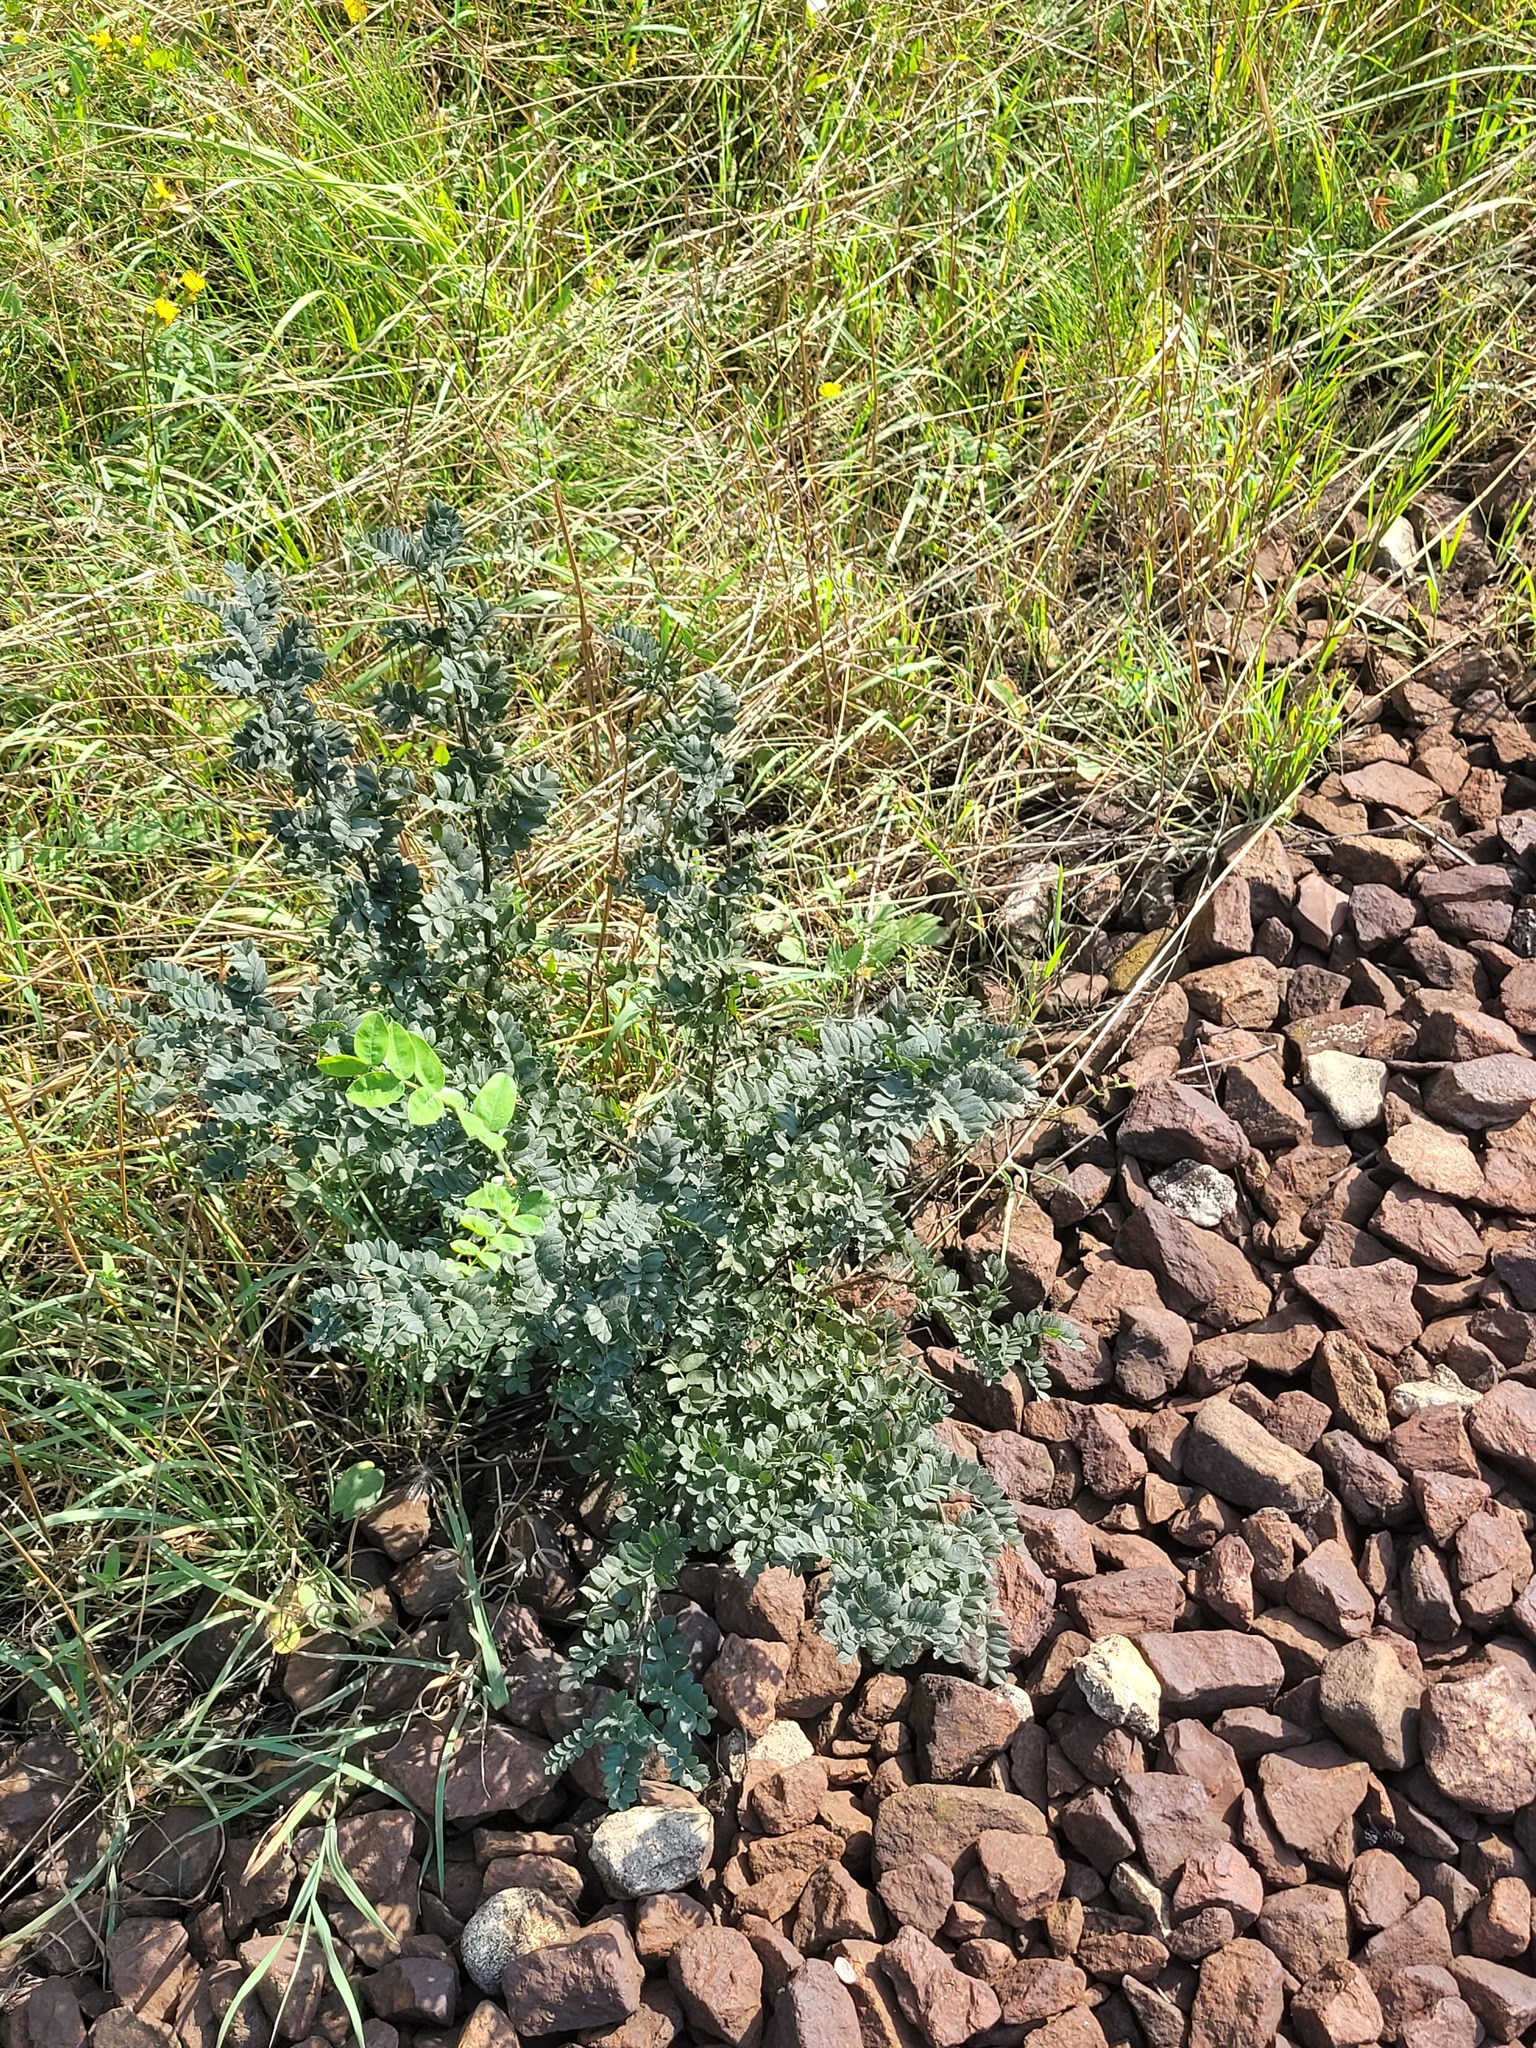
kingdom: Plantae
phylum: Tracheophyta
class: Magnoliopsida
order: Fabales
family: Fabaceae
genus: Caragana
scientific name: Caragana arborescens
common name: Siberian peashrub
